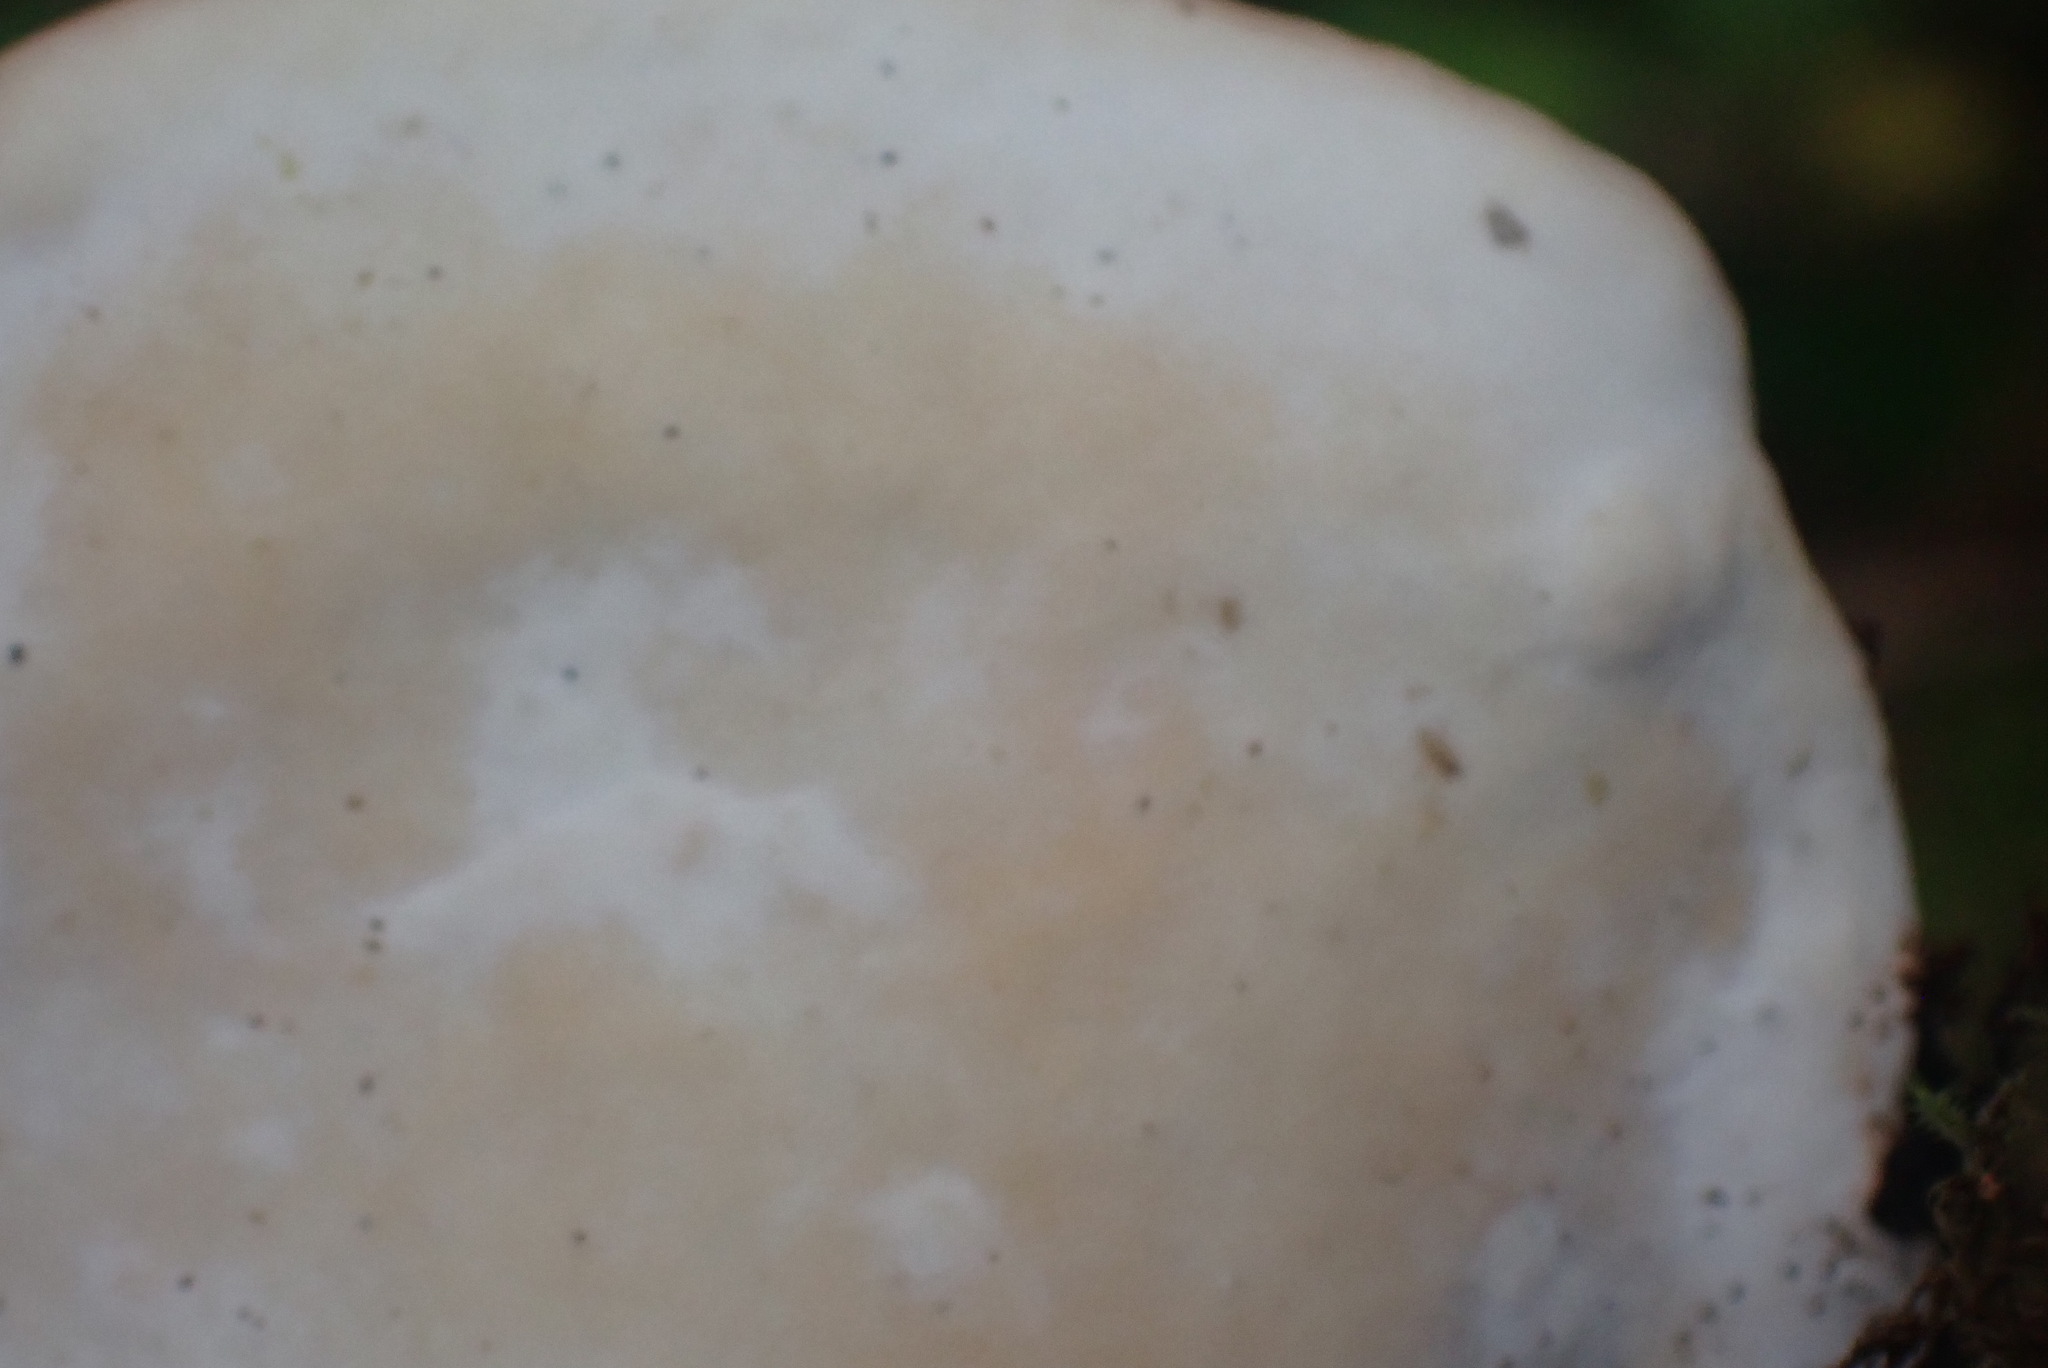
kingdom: Fungi
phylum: Basidiomycota
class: Agaricomycetes
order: Polyporales
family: Fomitopsidaceae
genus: Fomitopsis
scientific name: Fomitopsis mounceae
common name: Northern red belt
